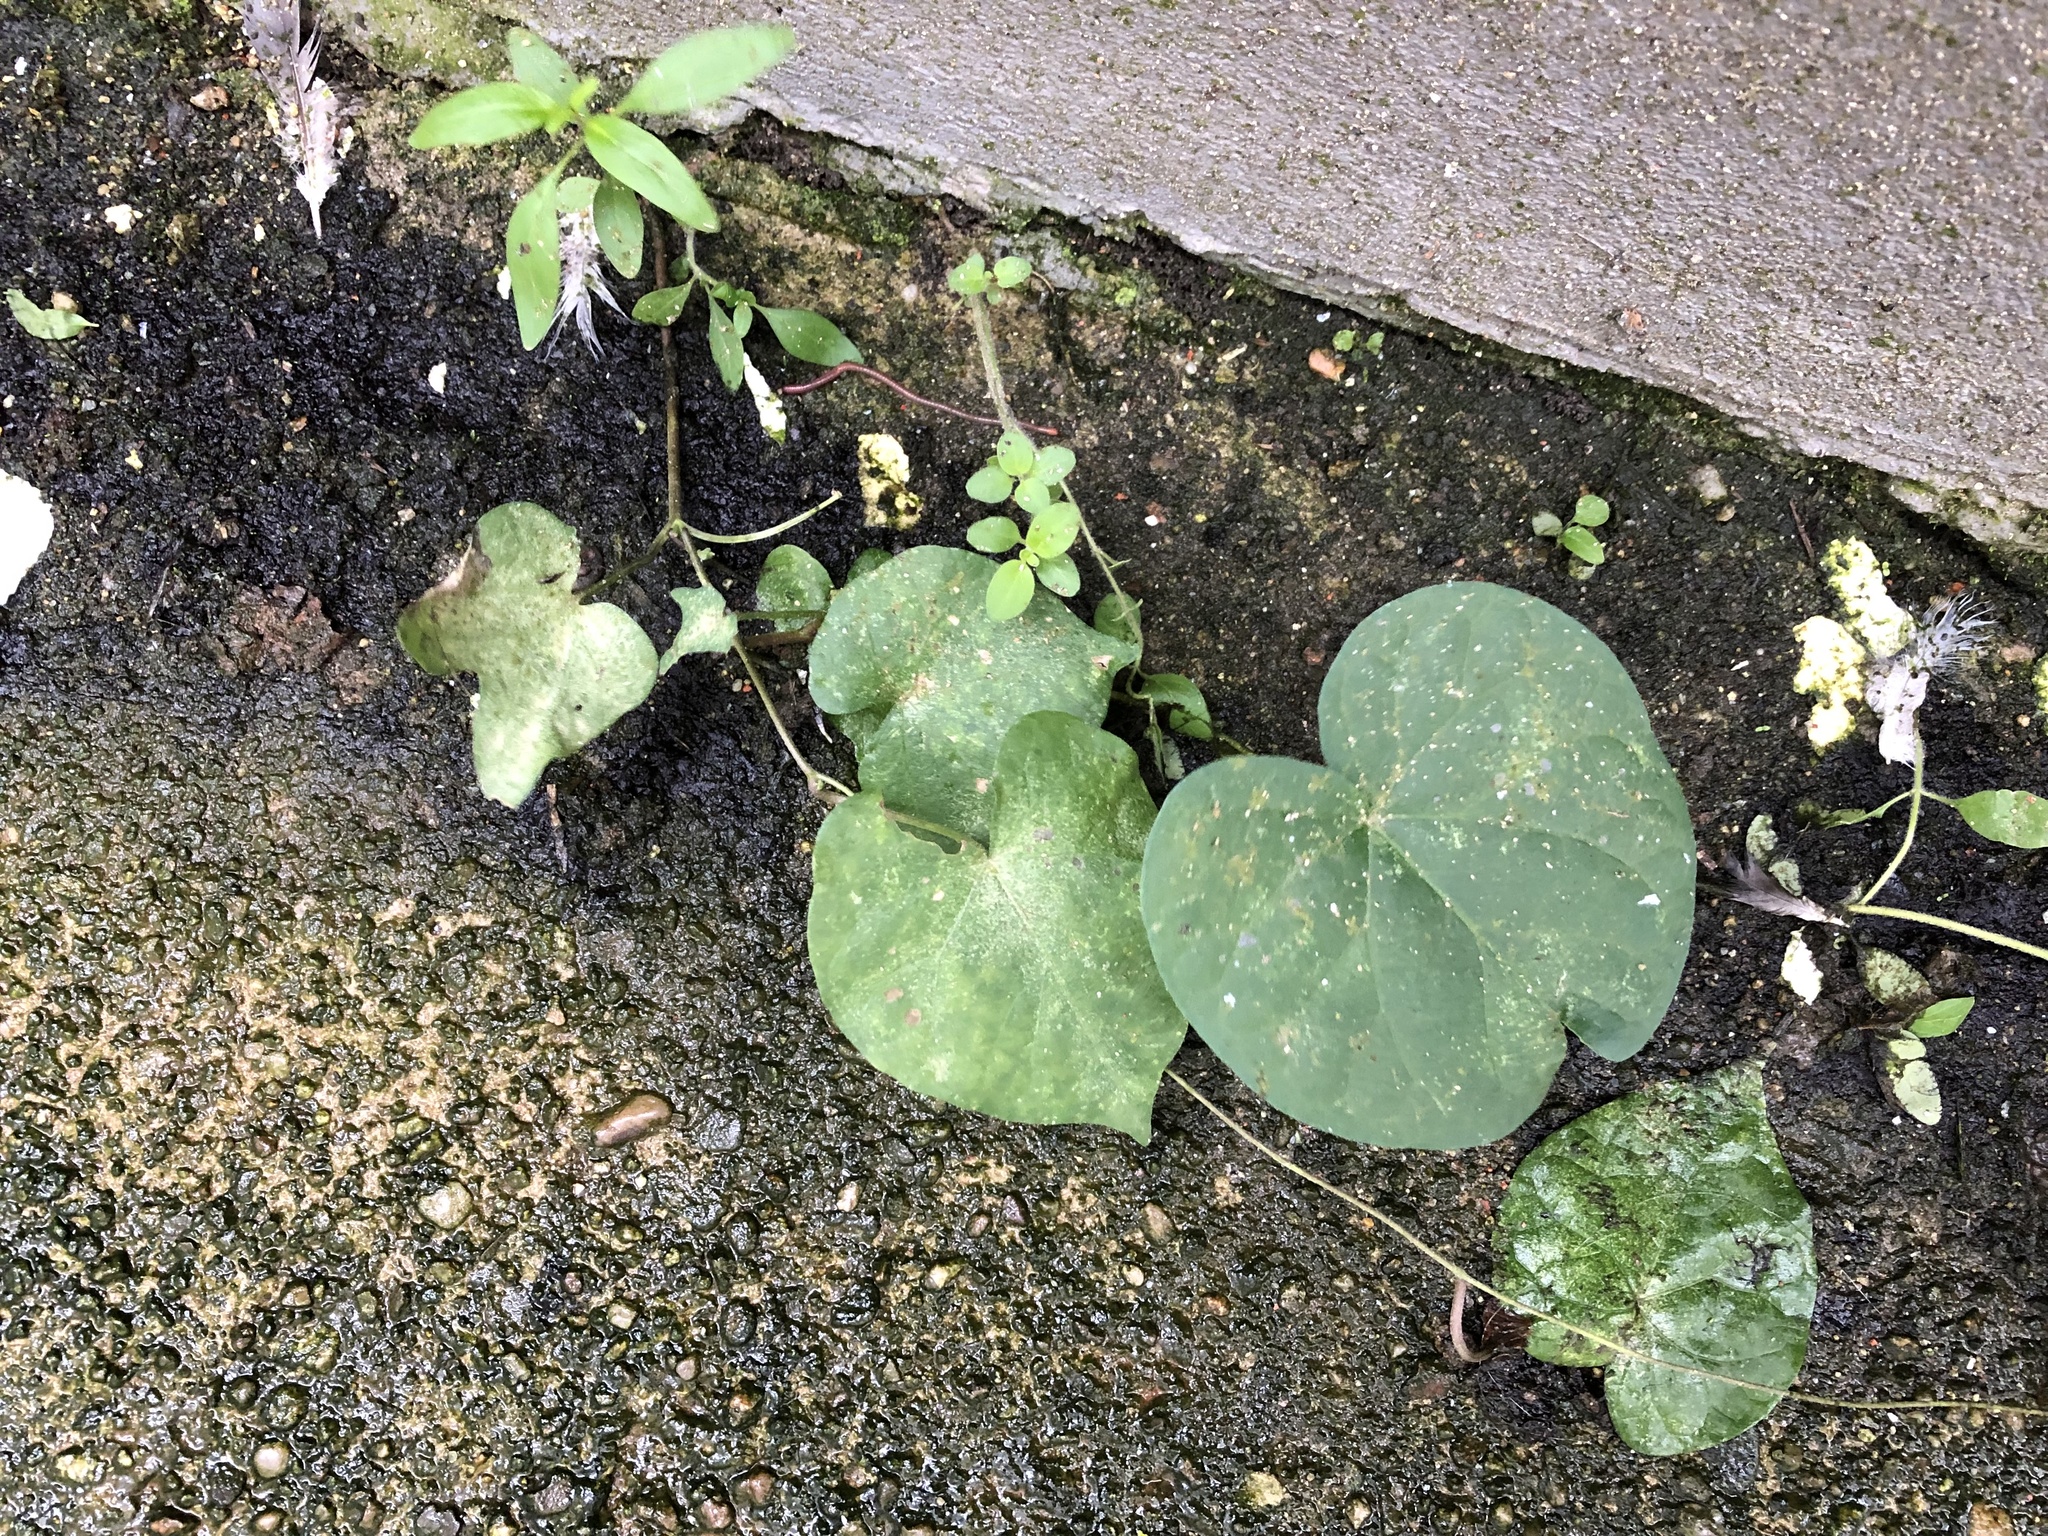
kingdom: Plantae
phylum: Tracheophyta
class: Magnoliopsida
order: Solanales
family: Convolvulaceae
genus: Ipomoea
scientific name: Ipomoea purpurea
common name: Common morning-glory
